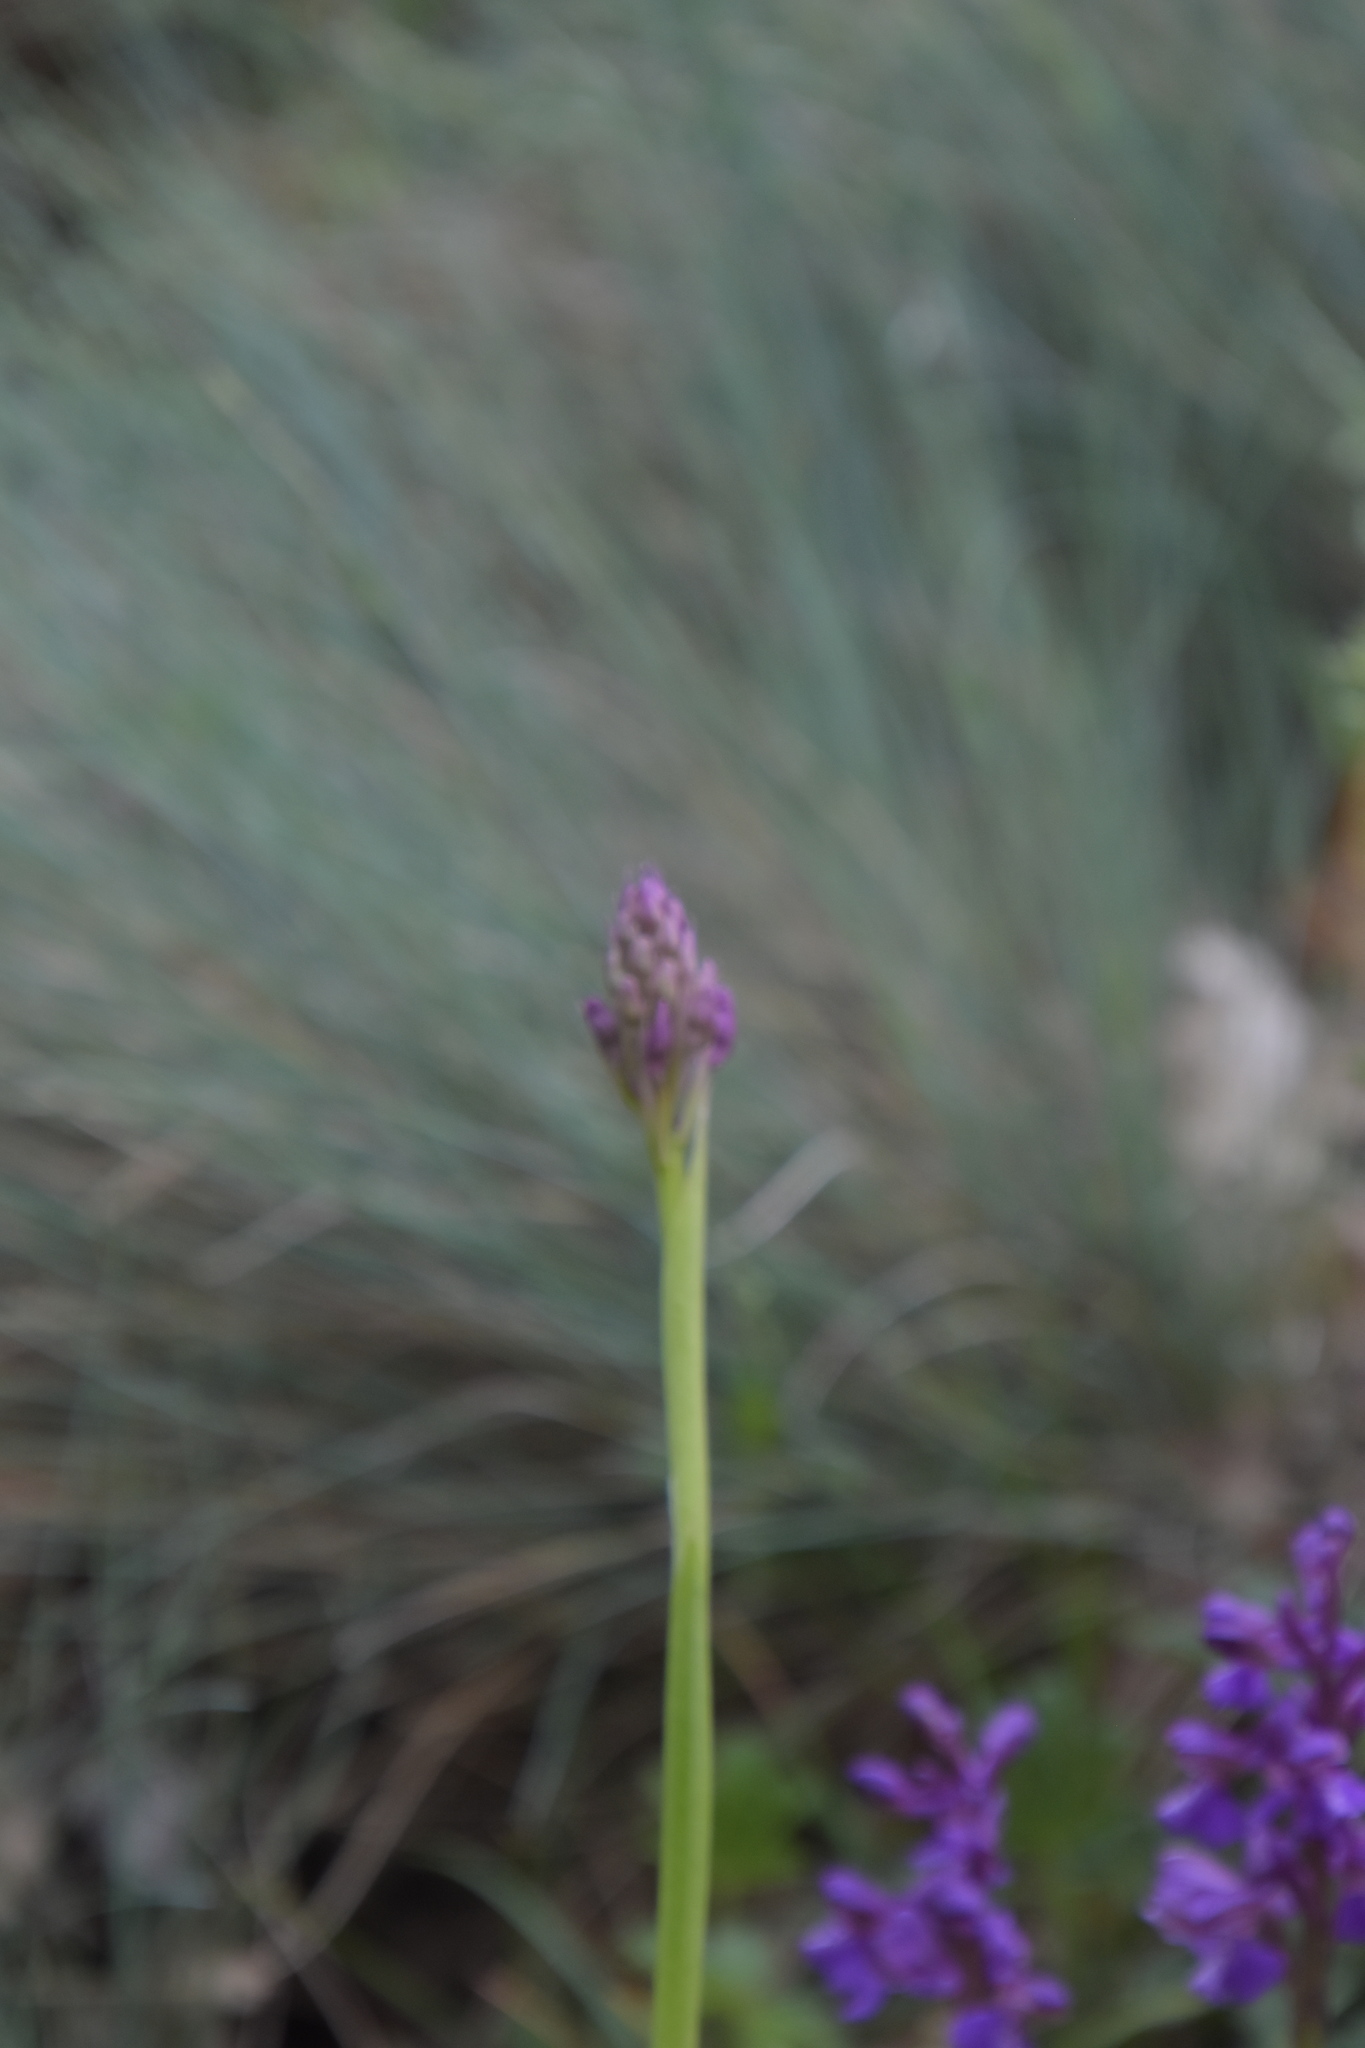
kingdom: Plantae
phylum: Tracheophyta
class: Liliopsida
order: Asparagales
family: Orchidaceae
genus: Anacamptis
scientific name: Anacamptis pyramidalis
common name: Pyramidal orchid
